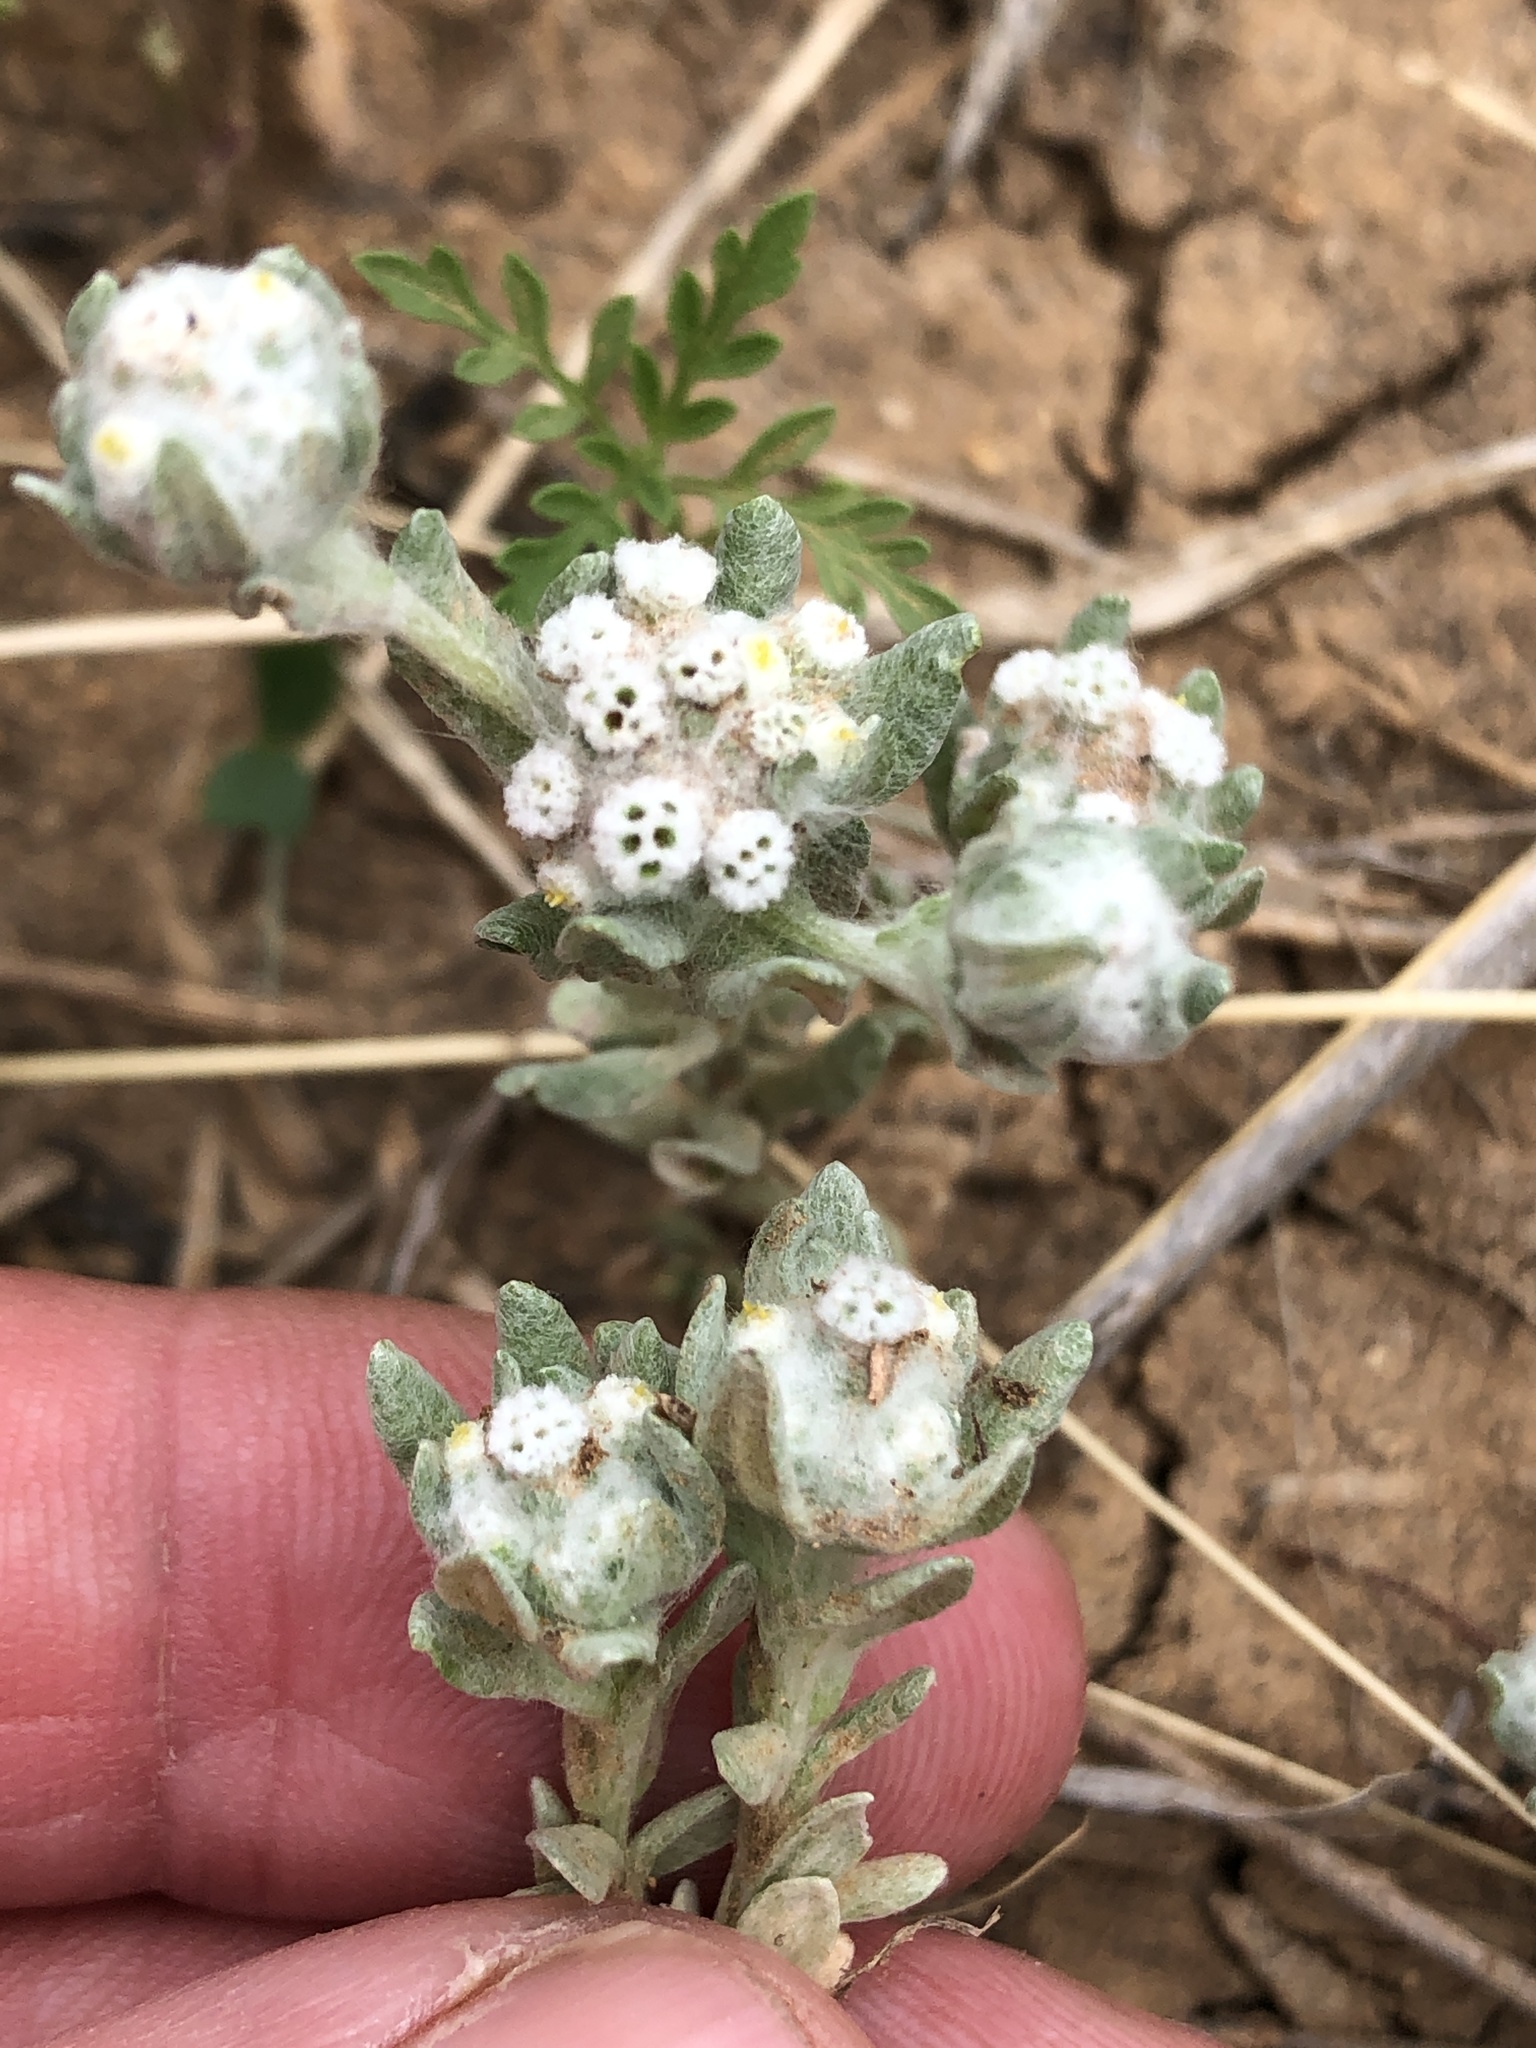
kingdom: Plantae
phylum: Tracheophyta
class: Magnoliopsida
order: Asterales
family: Asteraceae
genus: Diaperia
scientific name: Diaperia verna
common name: Many-stem rabbit-tobacco
